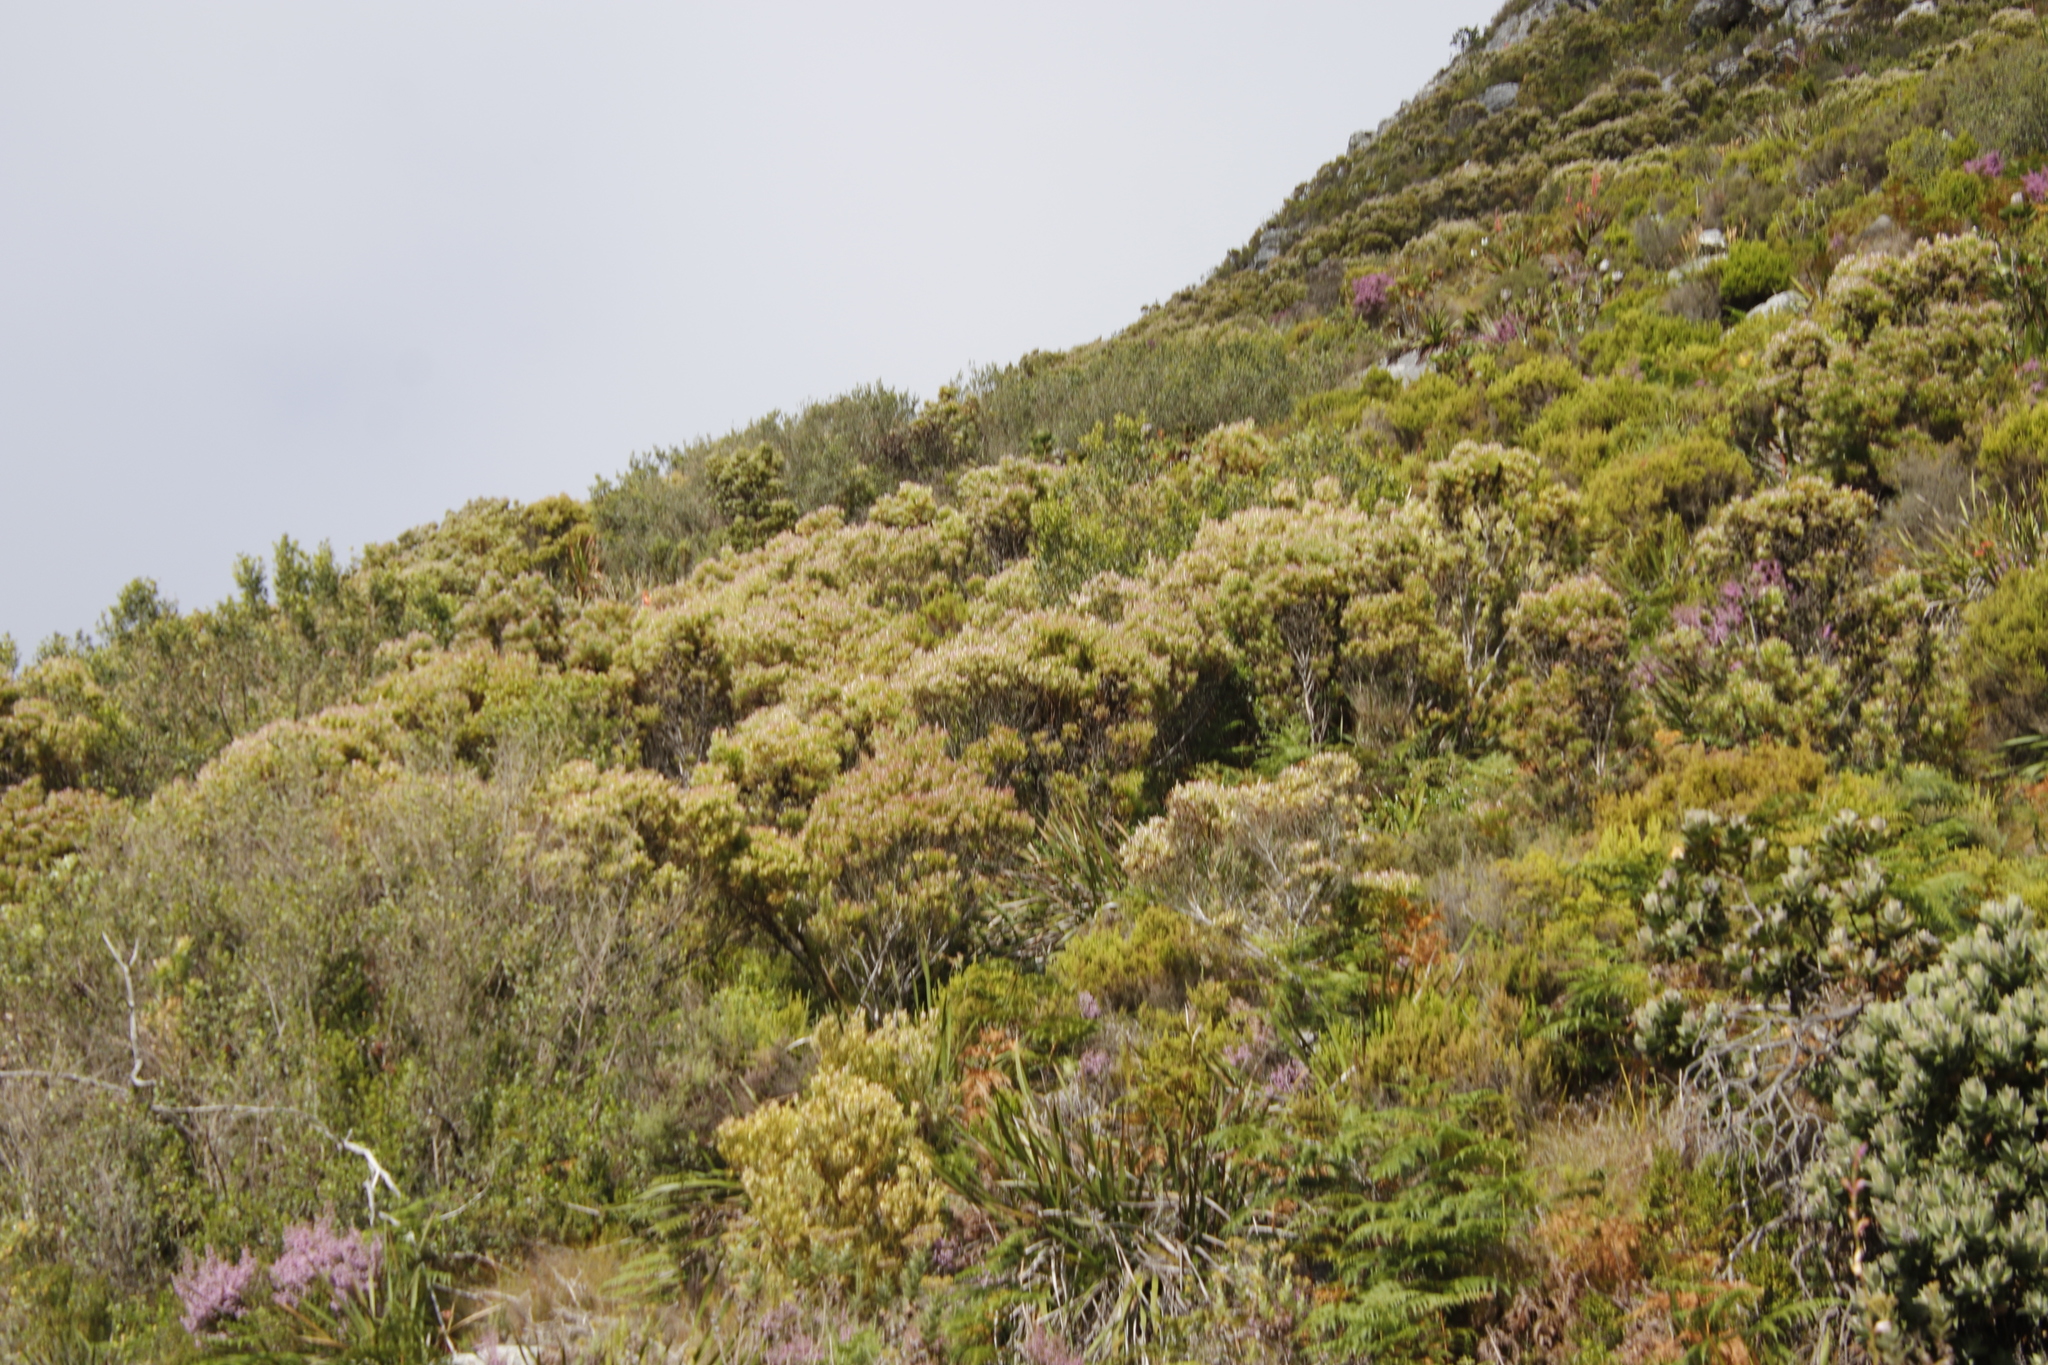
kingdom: Plantae
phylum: Tracheophyta
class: Magnoliopsida
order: Proteales
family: Proteaceae
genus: Leucadendron
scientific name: Leucadendron xanthoconus
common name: Sickle-leaf conebush
